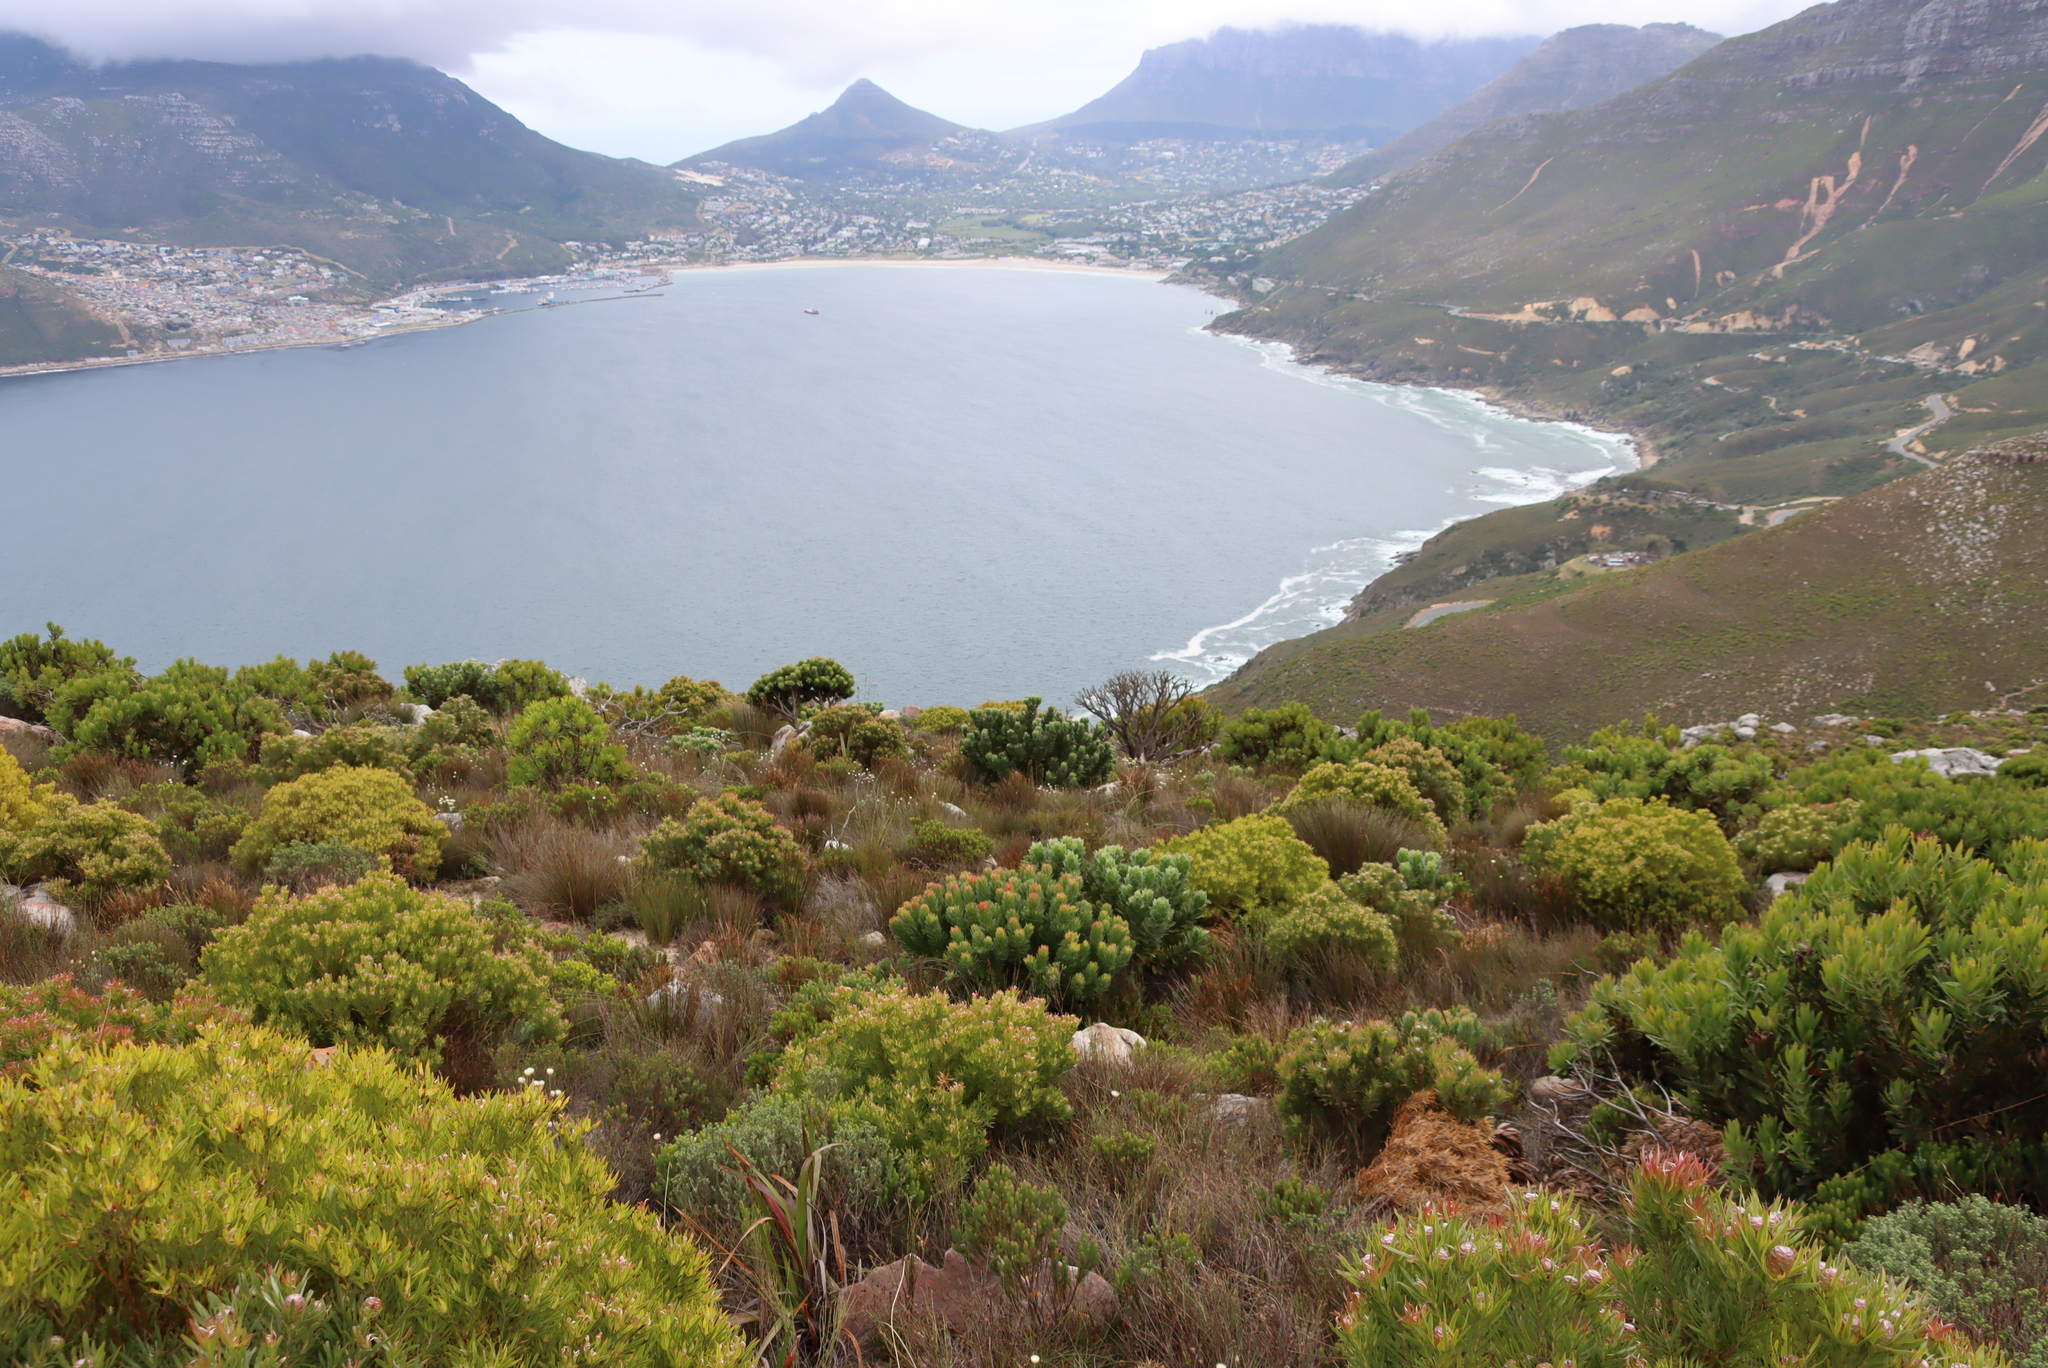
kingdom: Plantae
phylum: Tracheophyta
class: Magnoliopsida
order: Proteales
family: Proteaceae
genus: Mimetes
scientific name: Mimetes fimbriifolius
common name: Fringed bottlebrush
